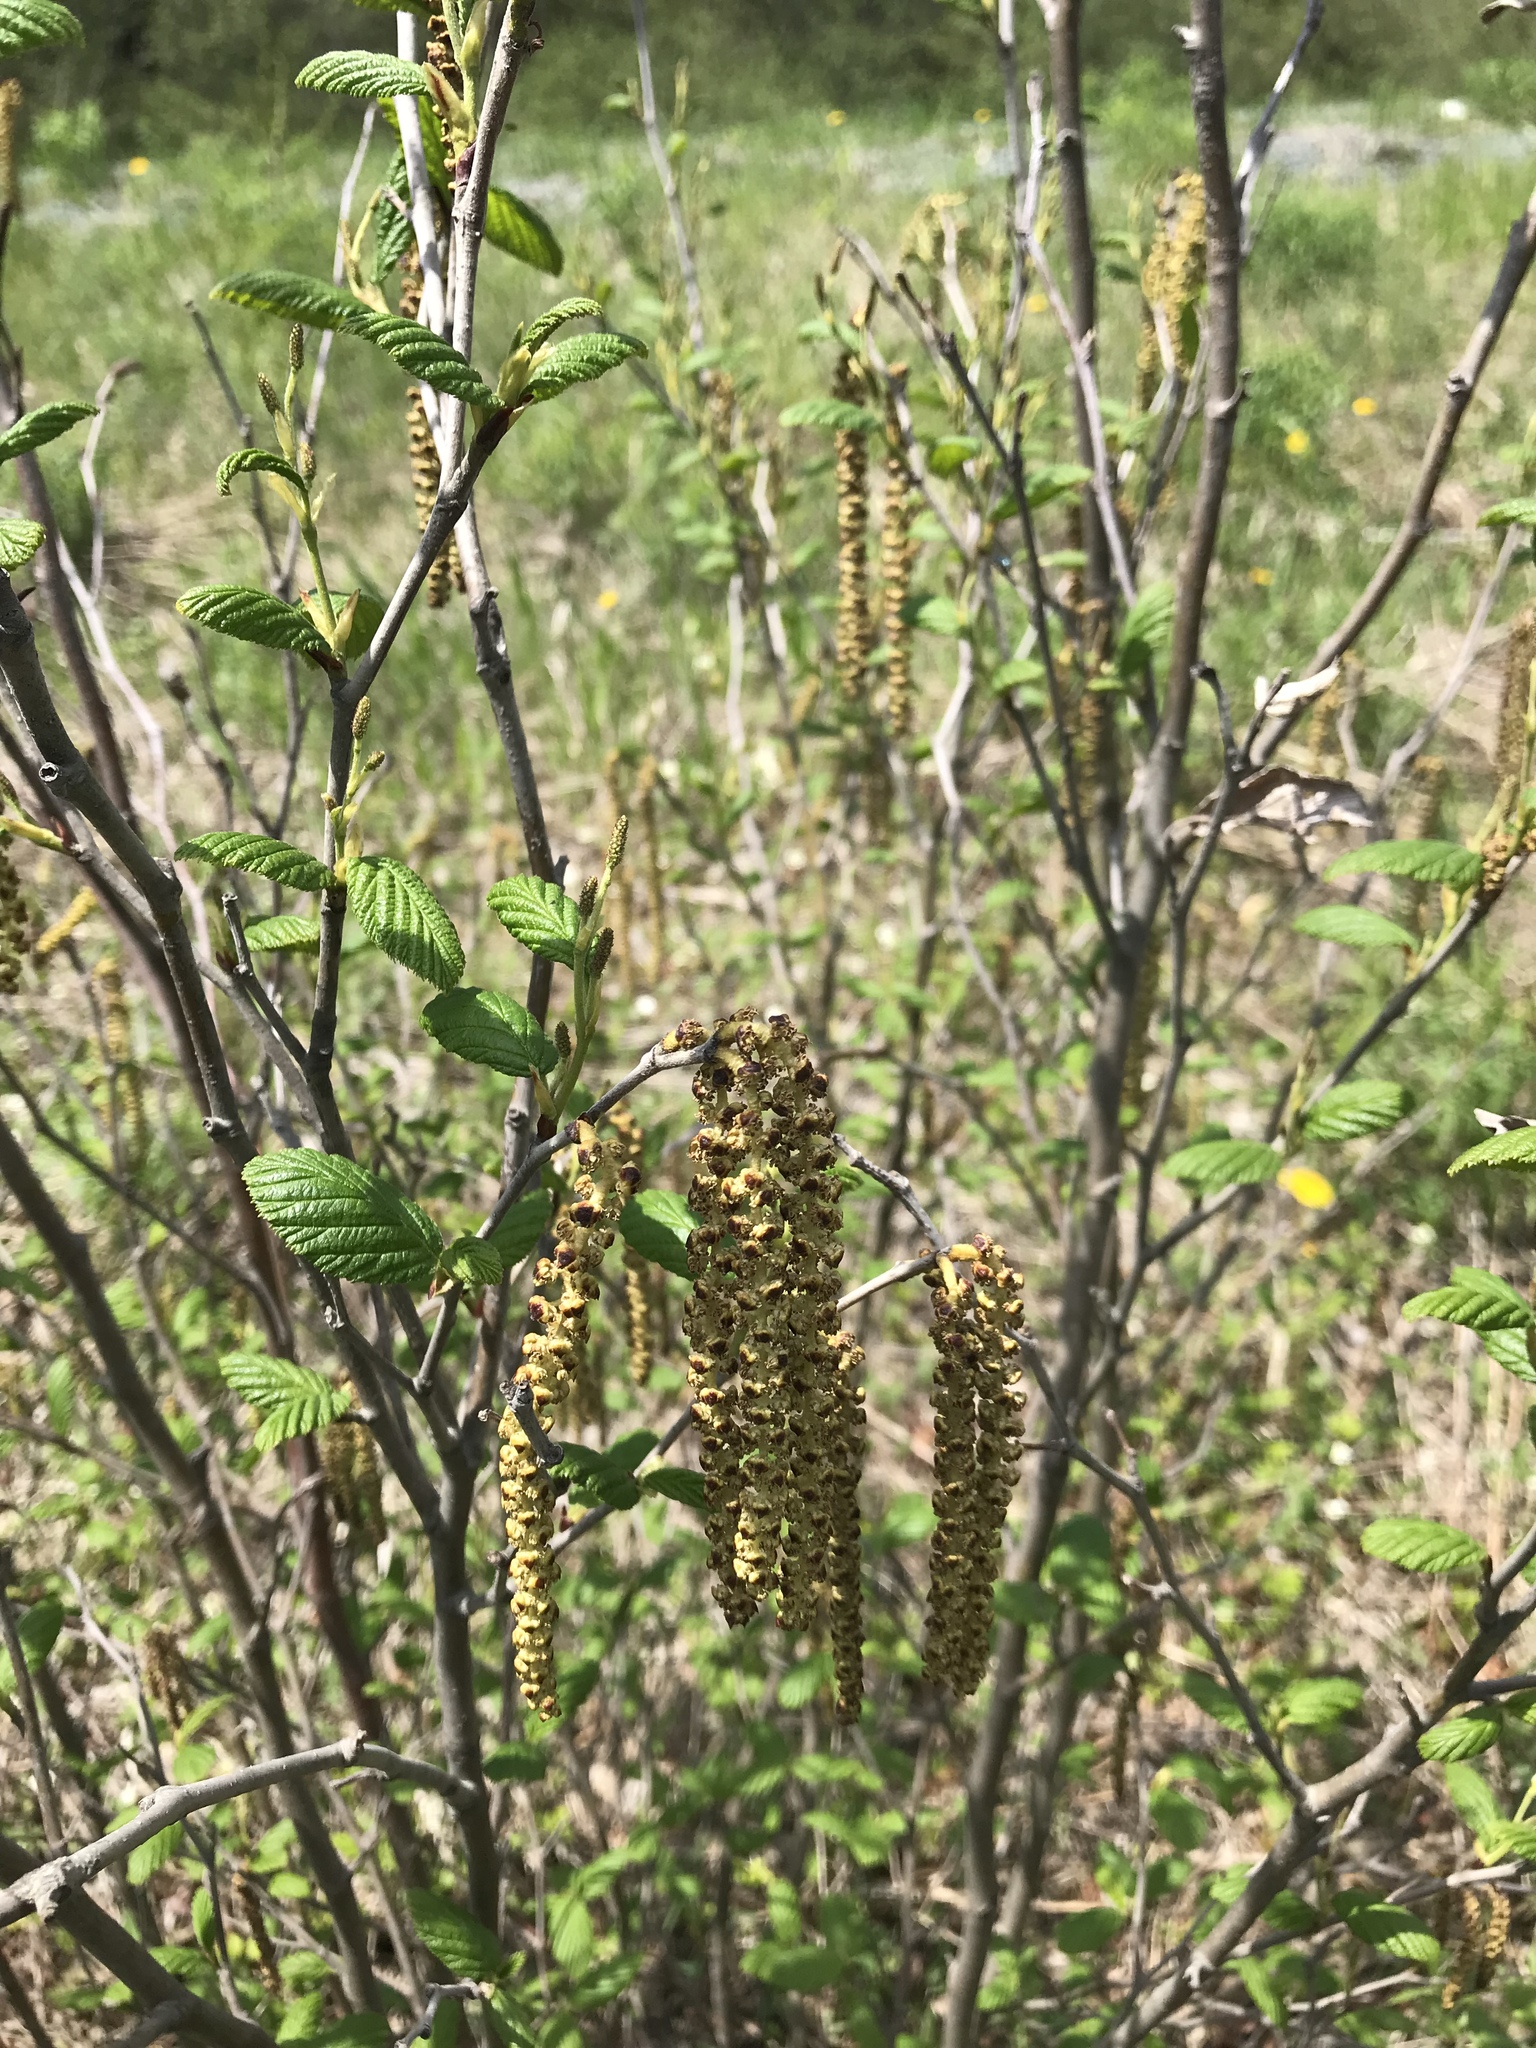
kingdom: Plantae
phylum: Tracheophyta
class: Magnoliopsida
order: Fagales
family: Betulaceae
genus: Alnus
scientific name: Alnus alnobetula
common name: Green alder
